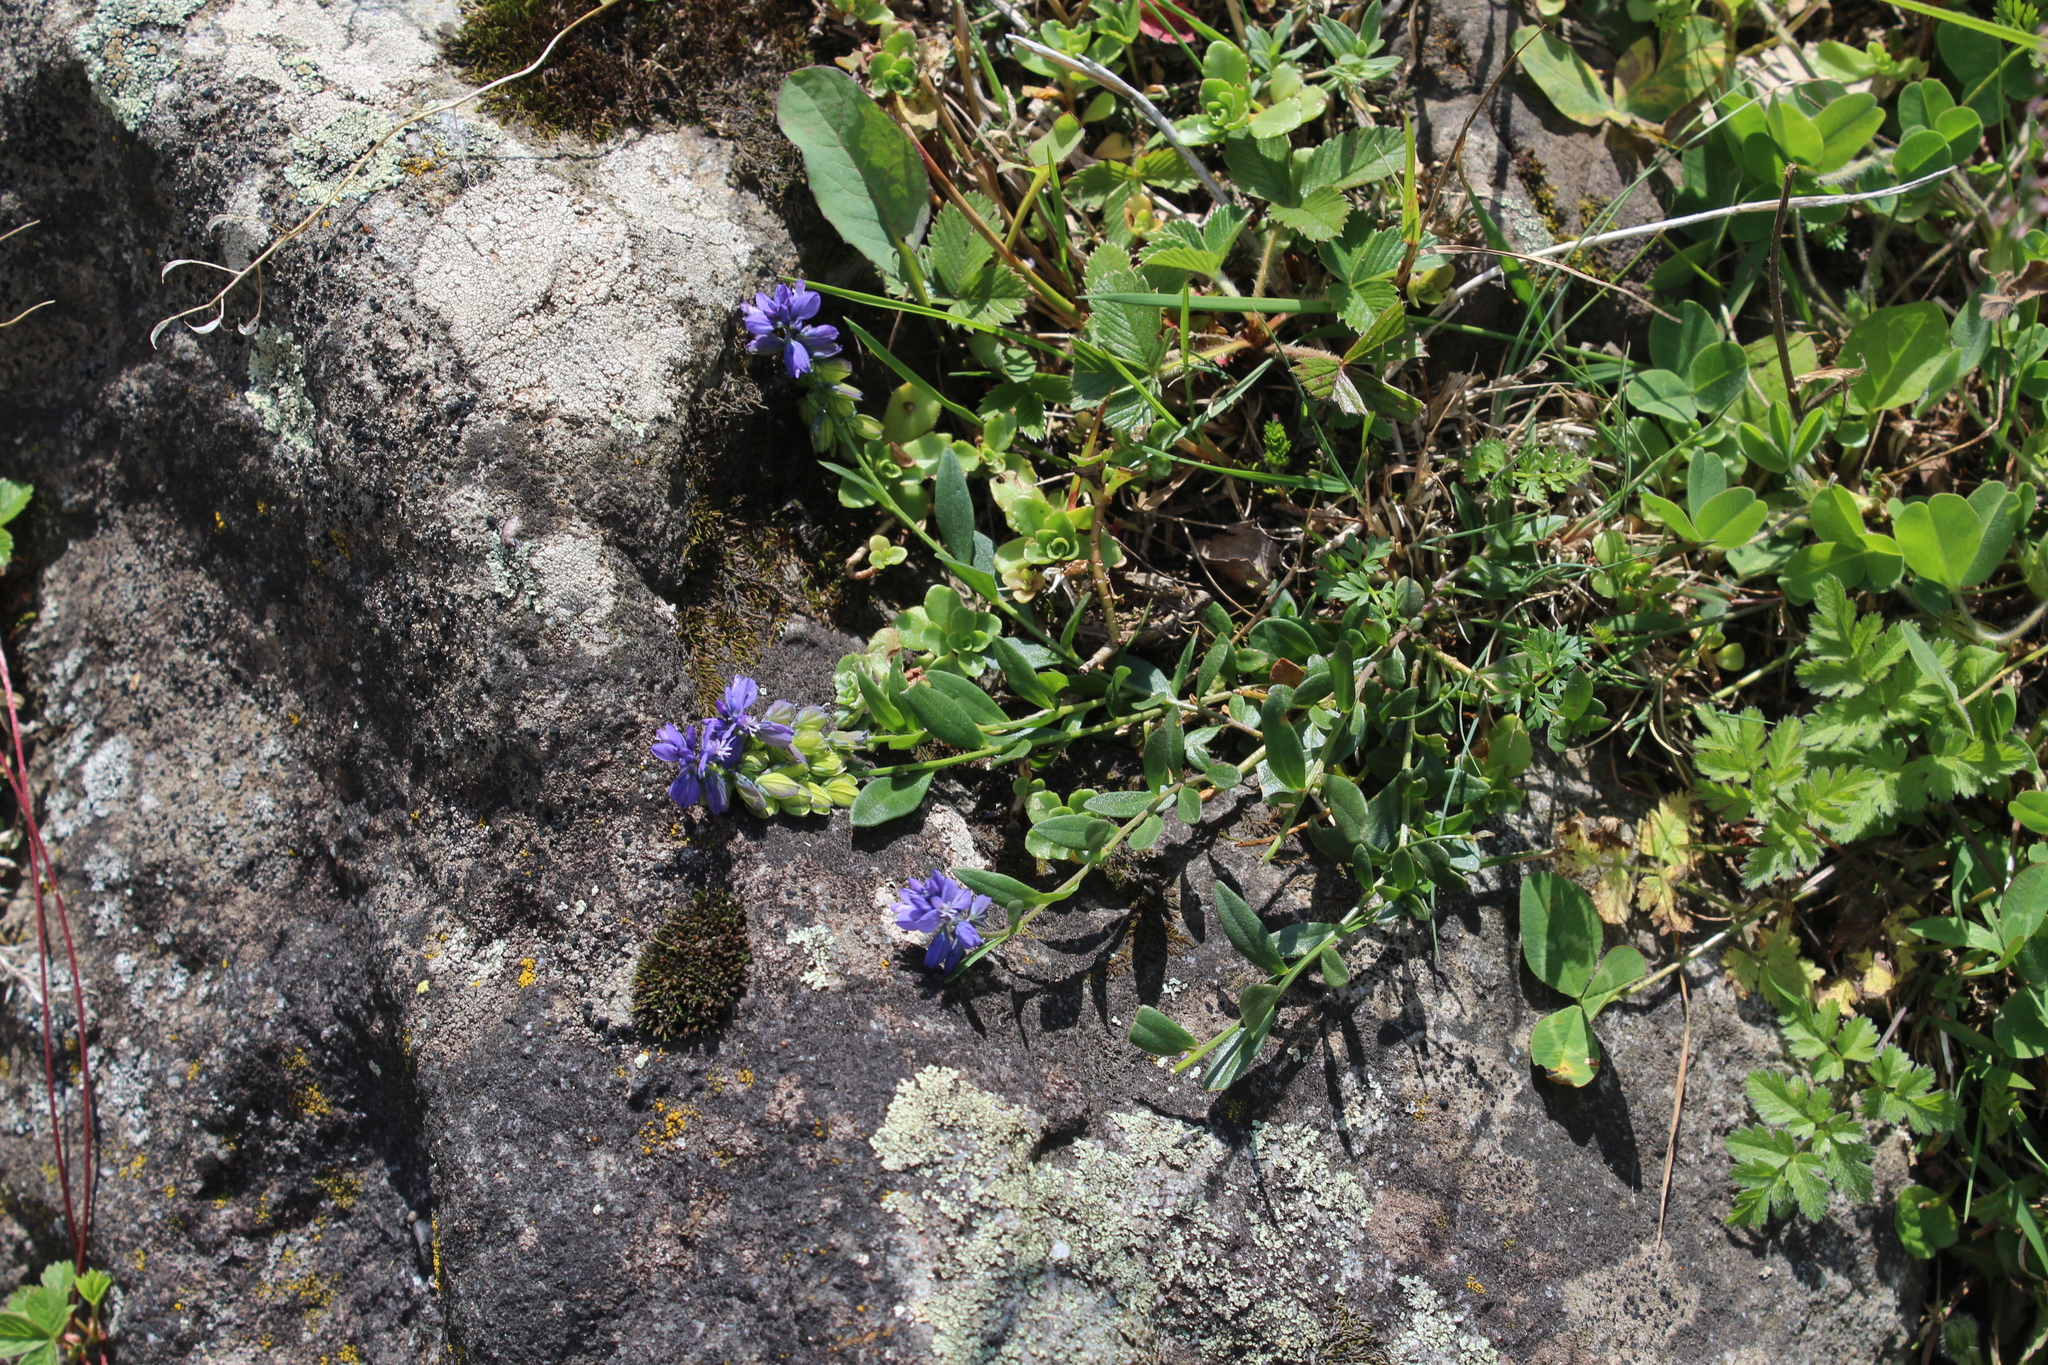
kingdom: Plantae
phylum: Tracheophyta
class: Magnoliopsida
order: Fabales
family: Polygalaceae
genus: Polygala
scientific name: Polygala alpicola
